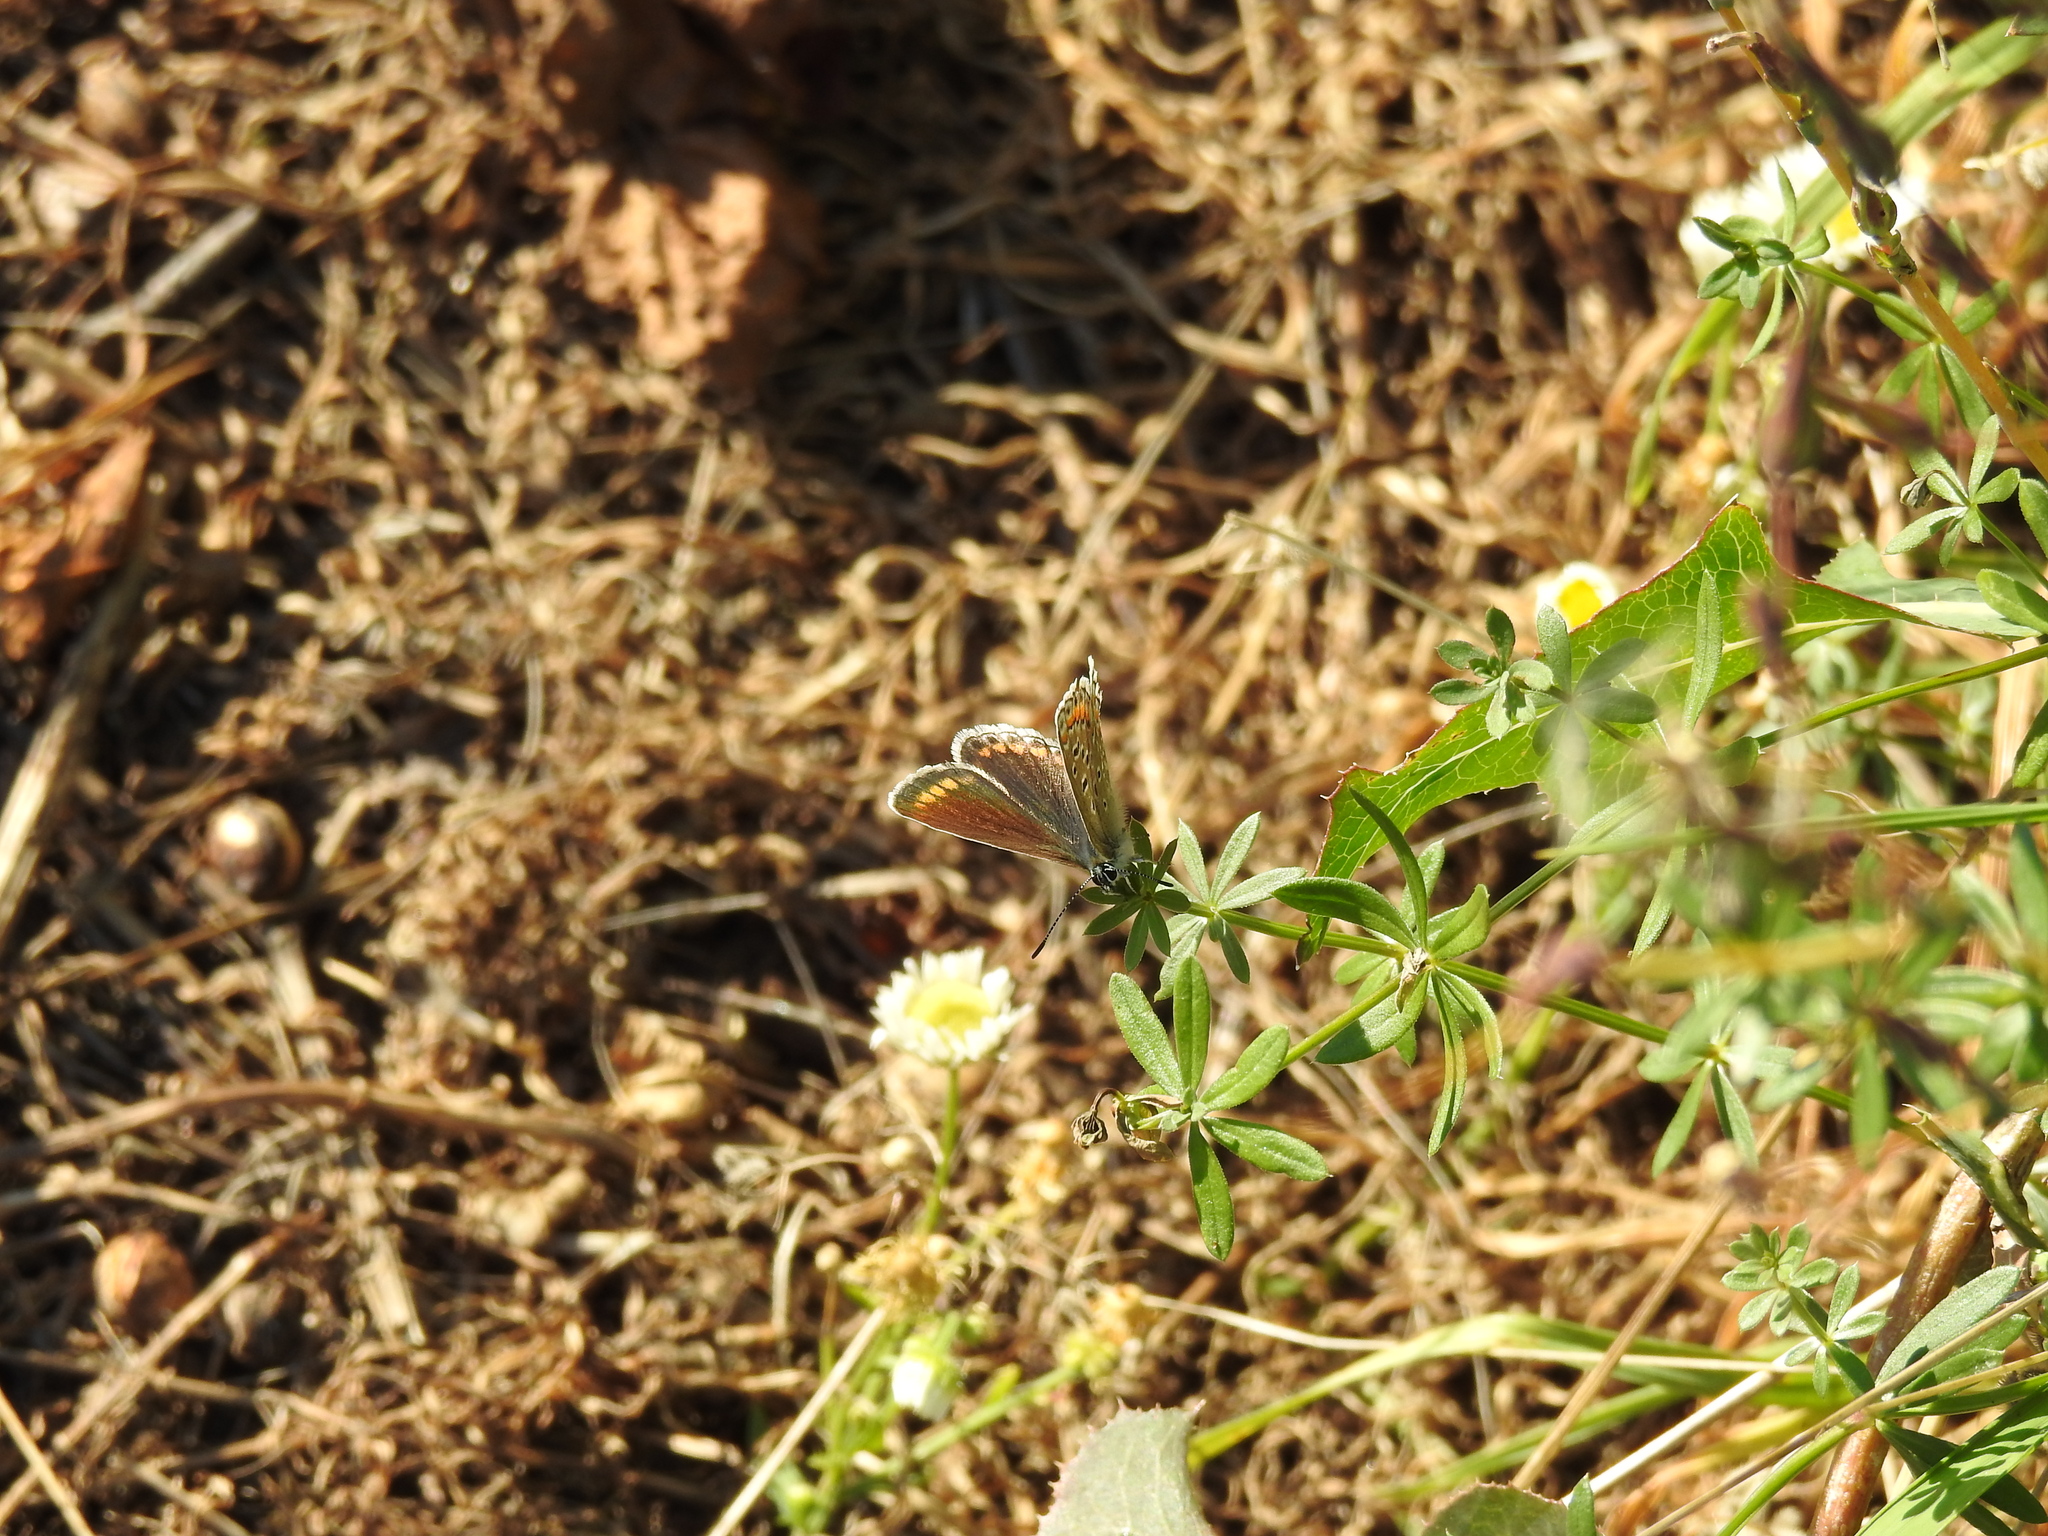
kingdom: Animalia
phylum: Arthropoda
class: Insecta
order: Lepidoptera
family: Lycaenidae
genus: Polyommatus
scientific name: Polyommatus icarus
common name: Common blue
